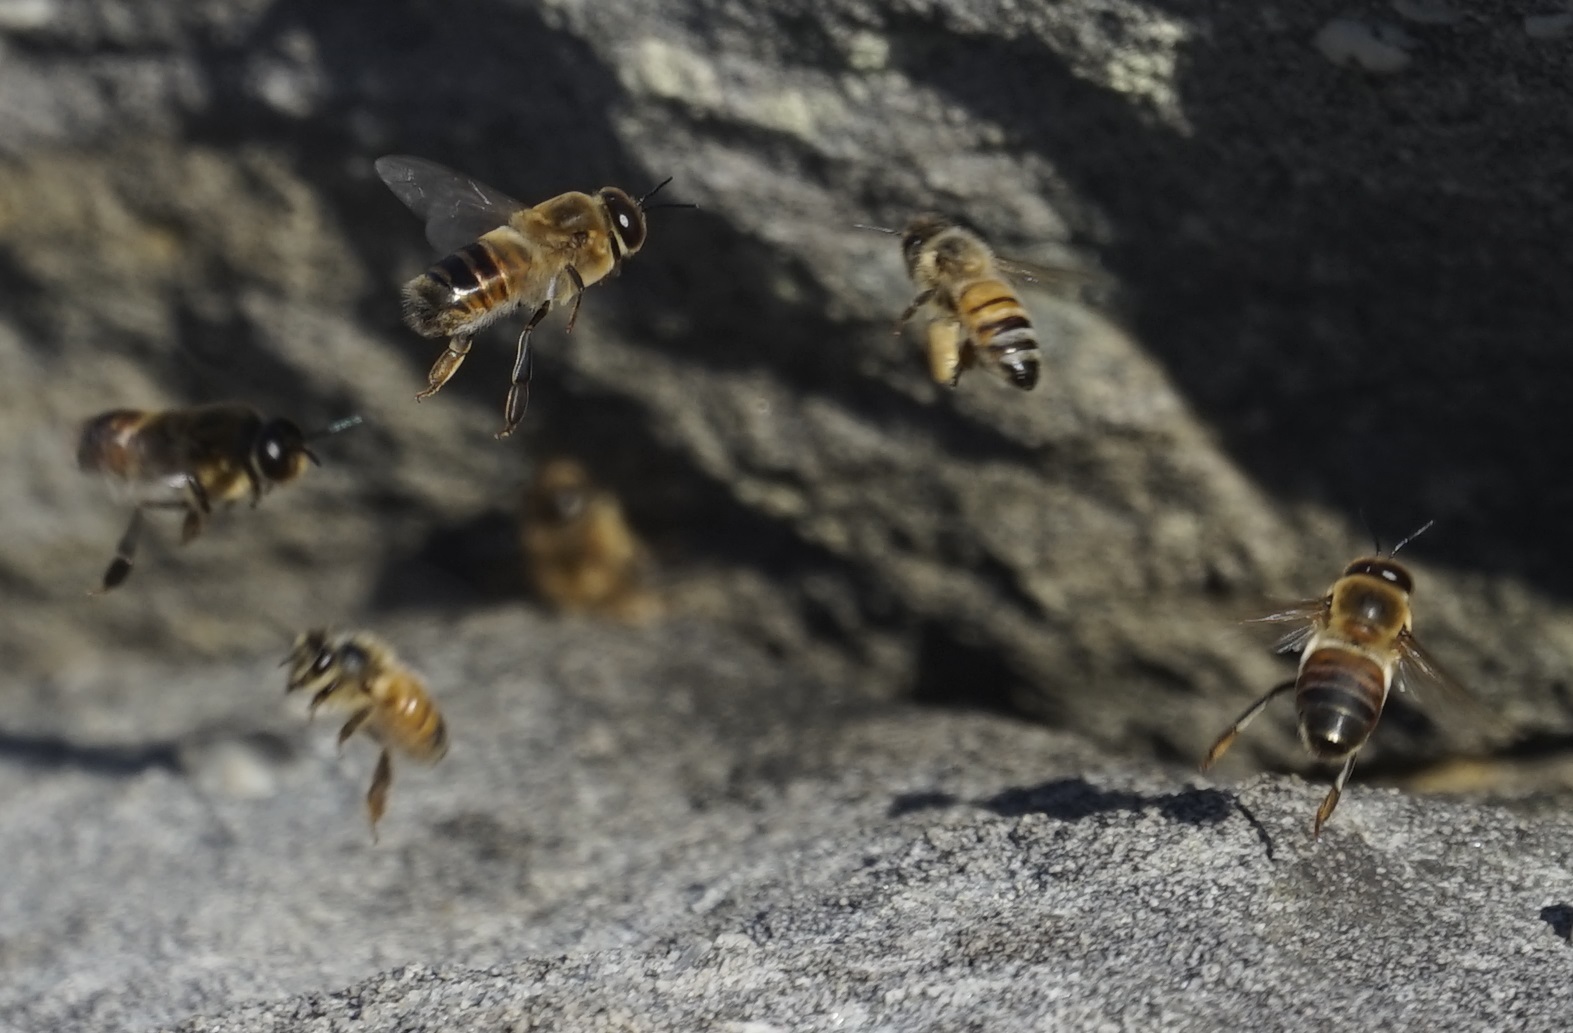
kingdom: Animalia
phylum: Arthropoda
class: Insecta
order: Hymenoptera
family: Apidae
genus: Apis
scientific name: Apis mellifera
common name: Honey bee
